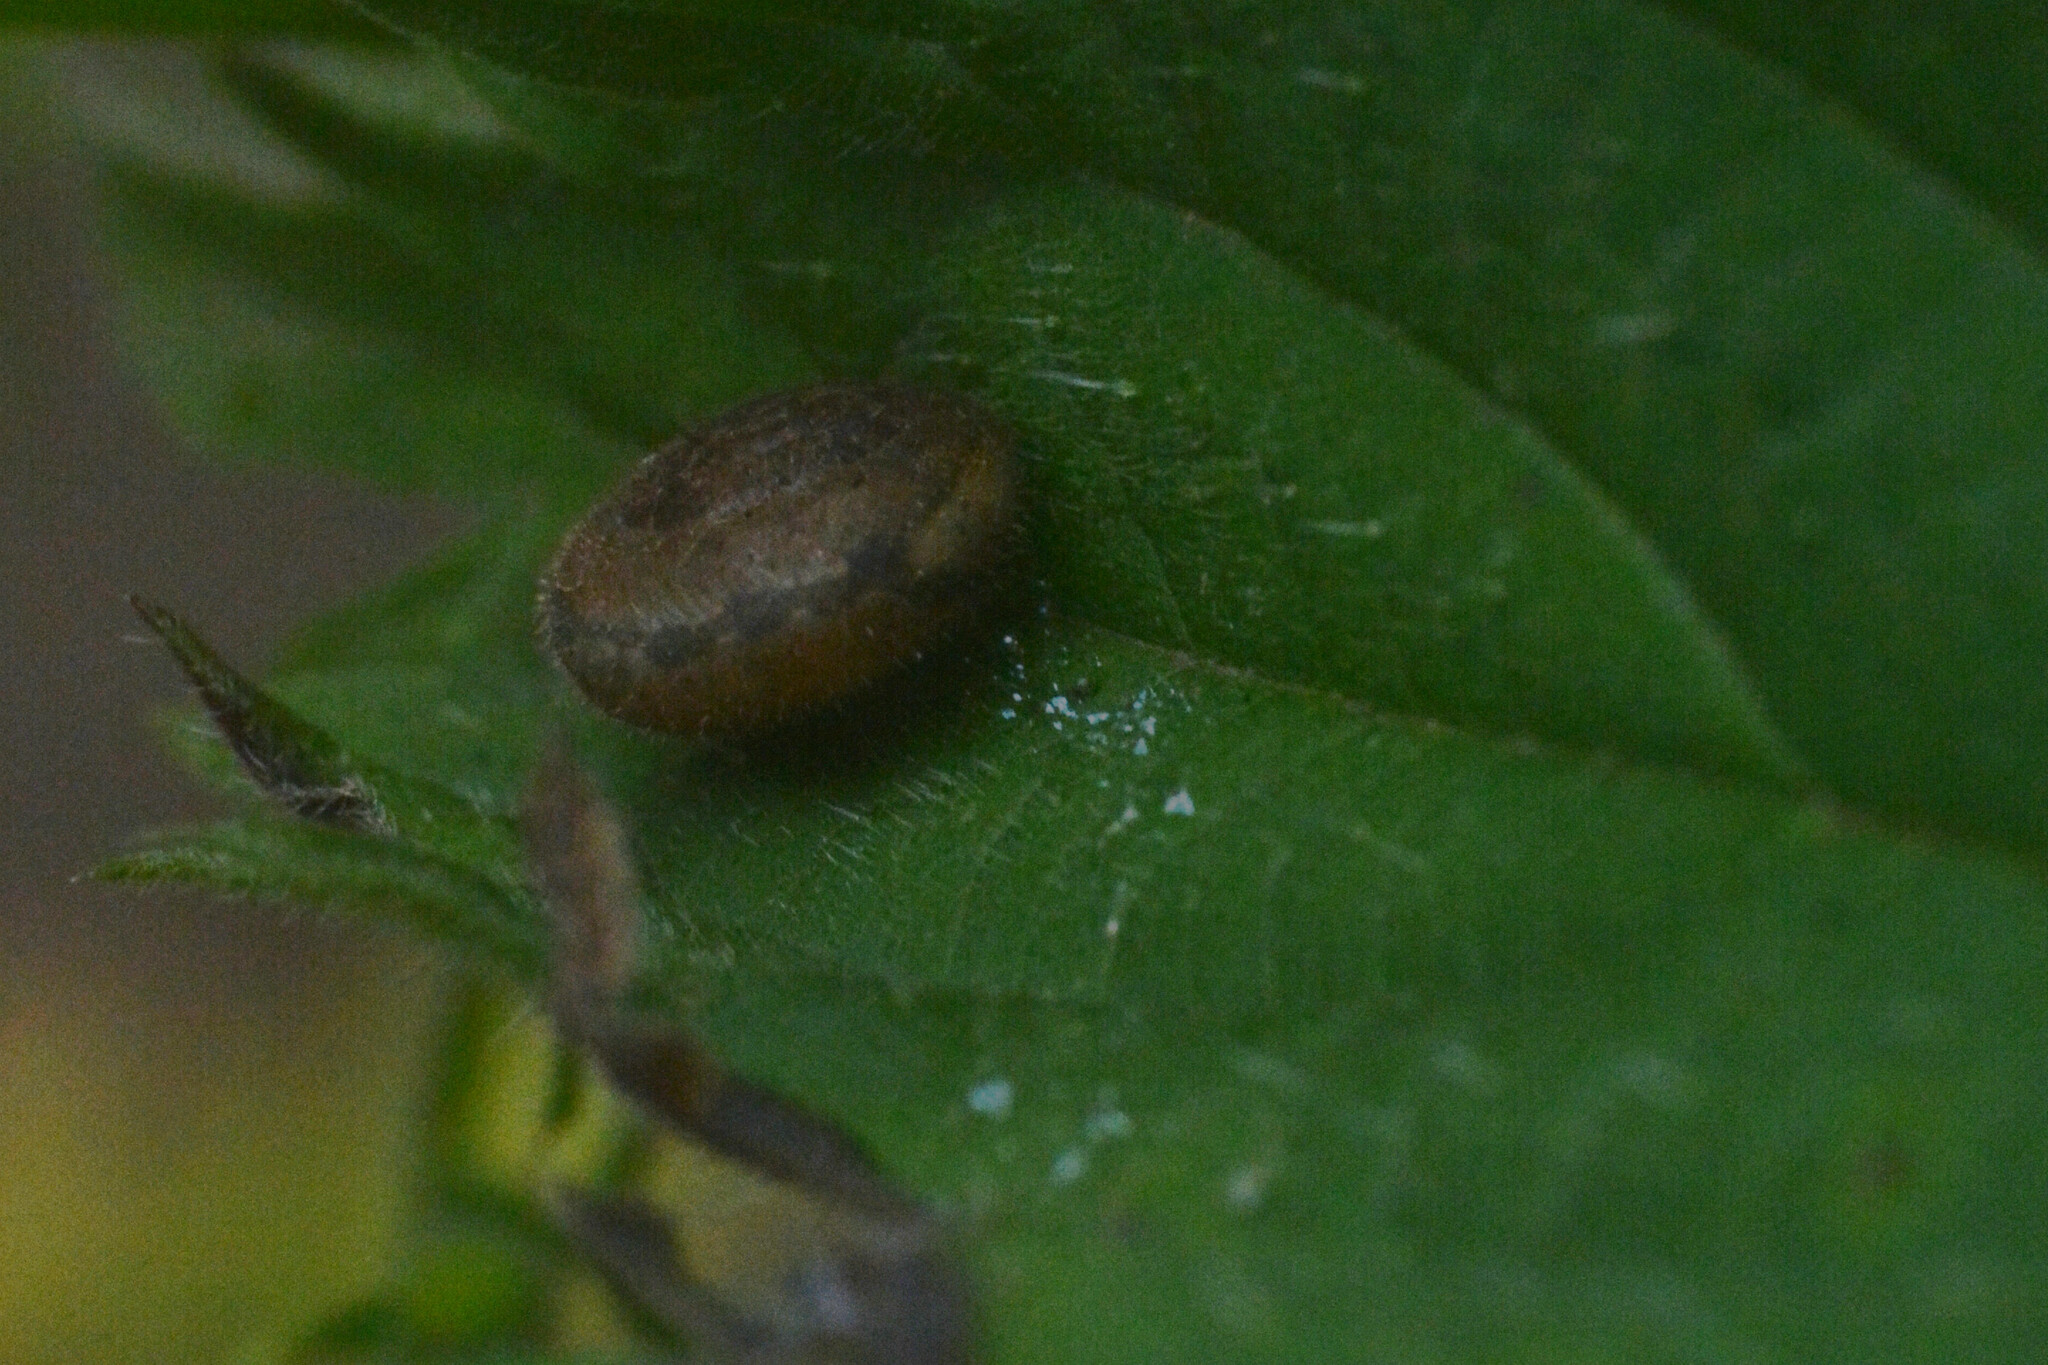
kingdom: Animalia
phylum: Mollusca
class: Gastropoda
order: Stylommatophora
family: Hygromiidae
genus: Trochulus
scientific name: Trochulus hispidus
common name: Hairy snail
